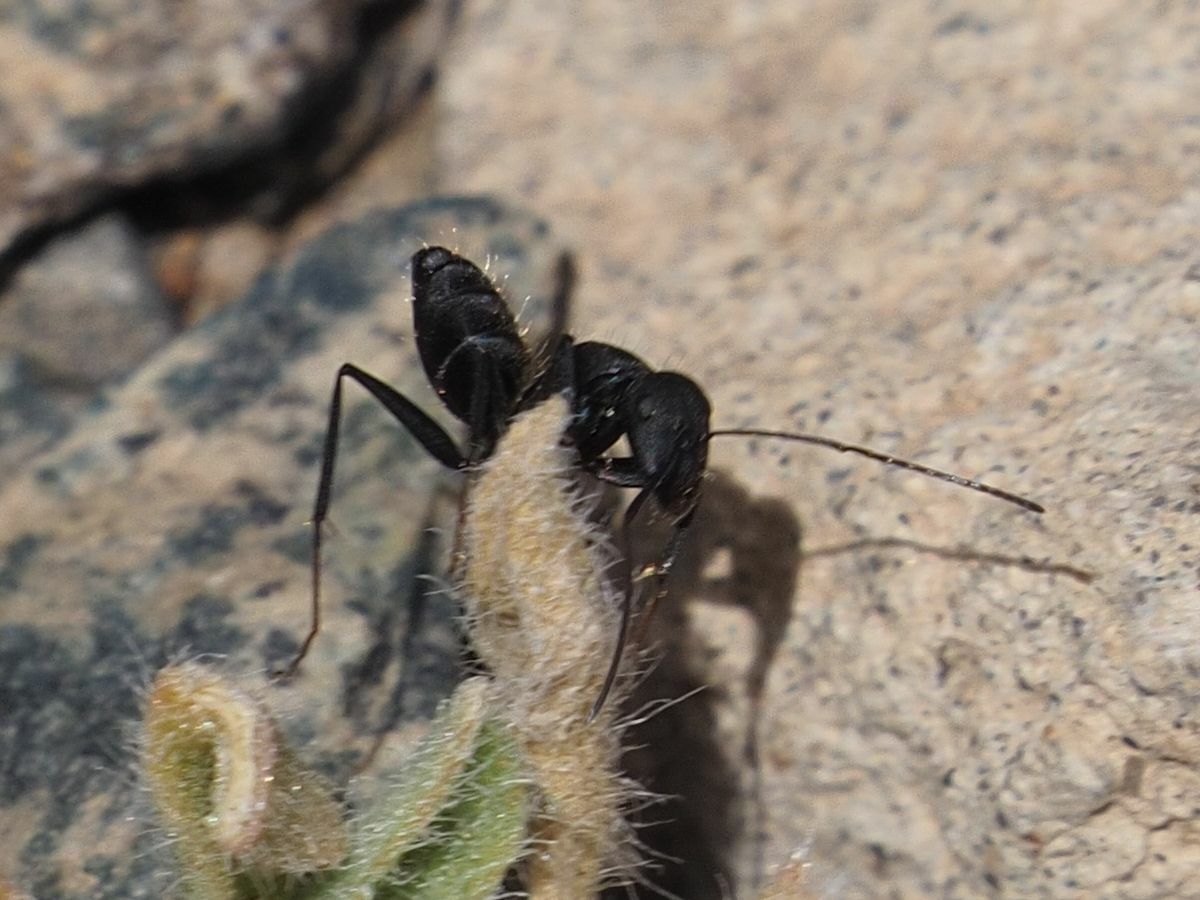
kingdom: Animalia
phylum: Arthropoda
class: Insecta
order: Hymenoptera
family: Formicidae
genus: Camponotus
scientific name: Camponotus feai
